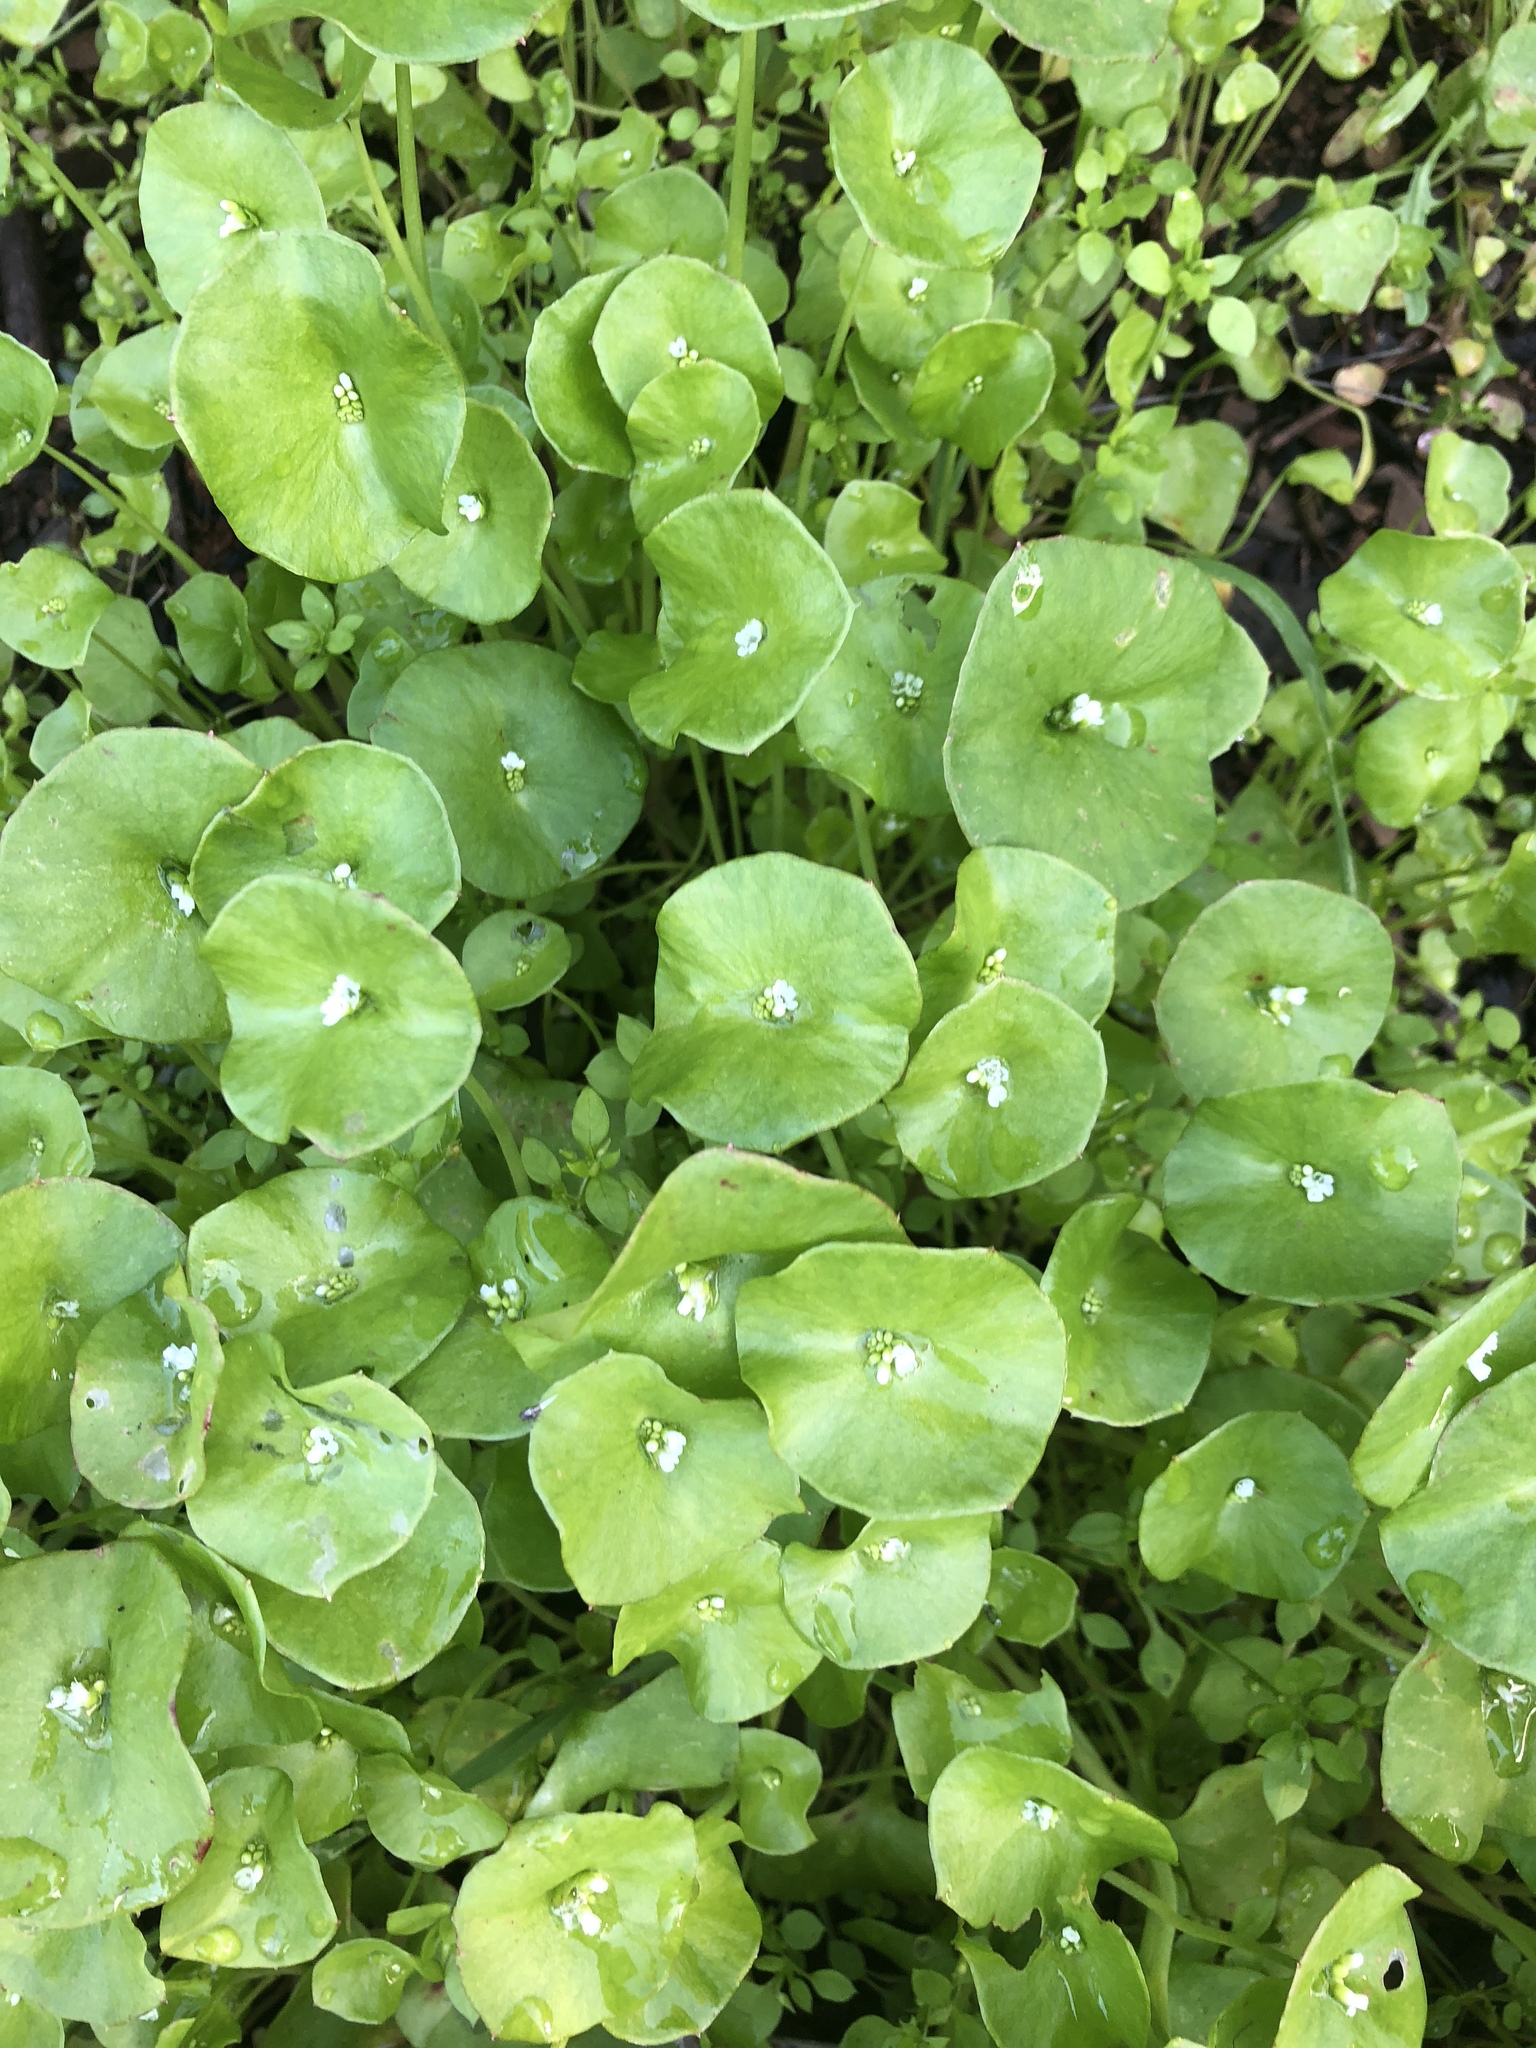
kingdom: Plantae
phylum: Tracheophyta
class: Magnoliopsida
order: Caryophyllales
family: Montiaceae
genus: Claytonia
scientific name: Claytonia perfoliata
